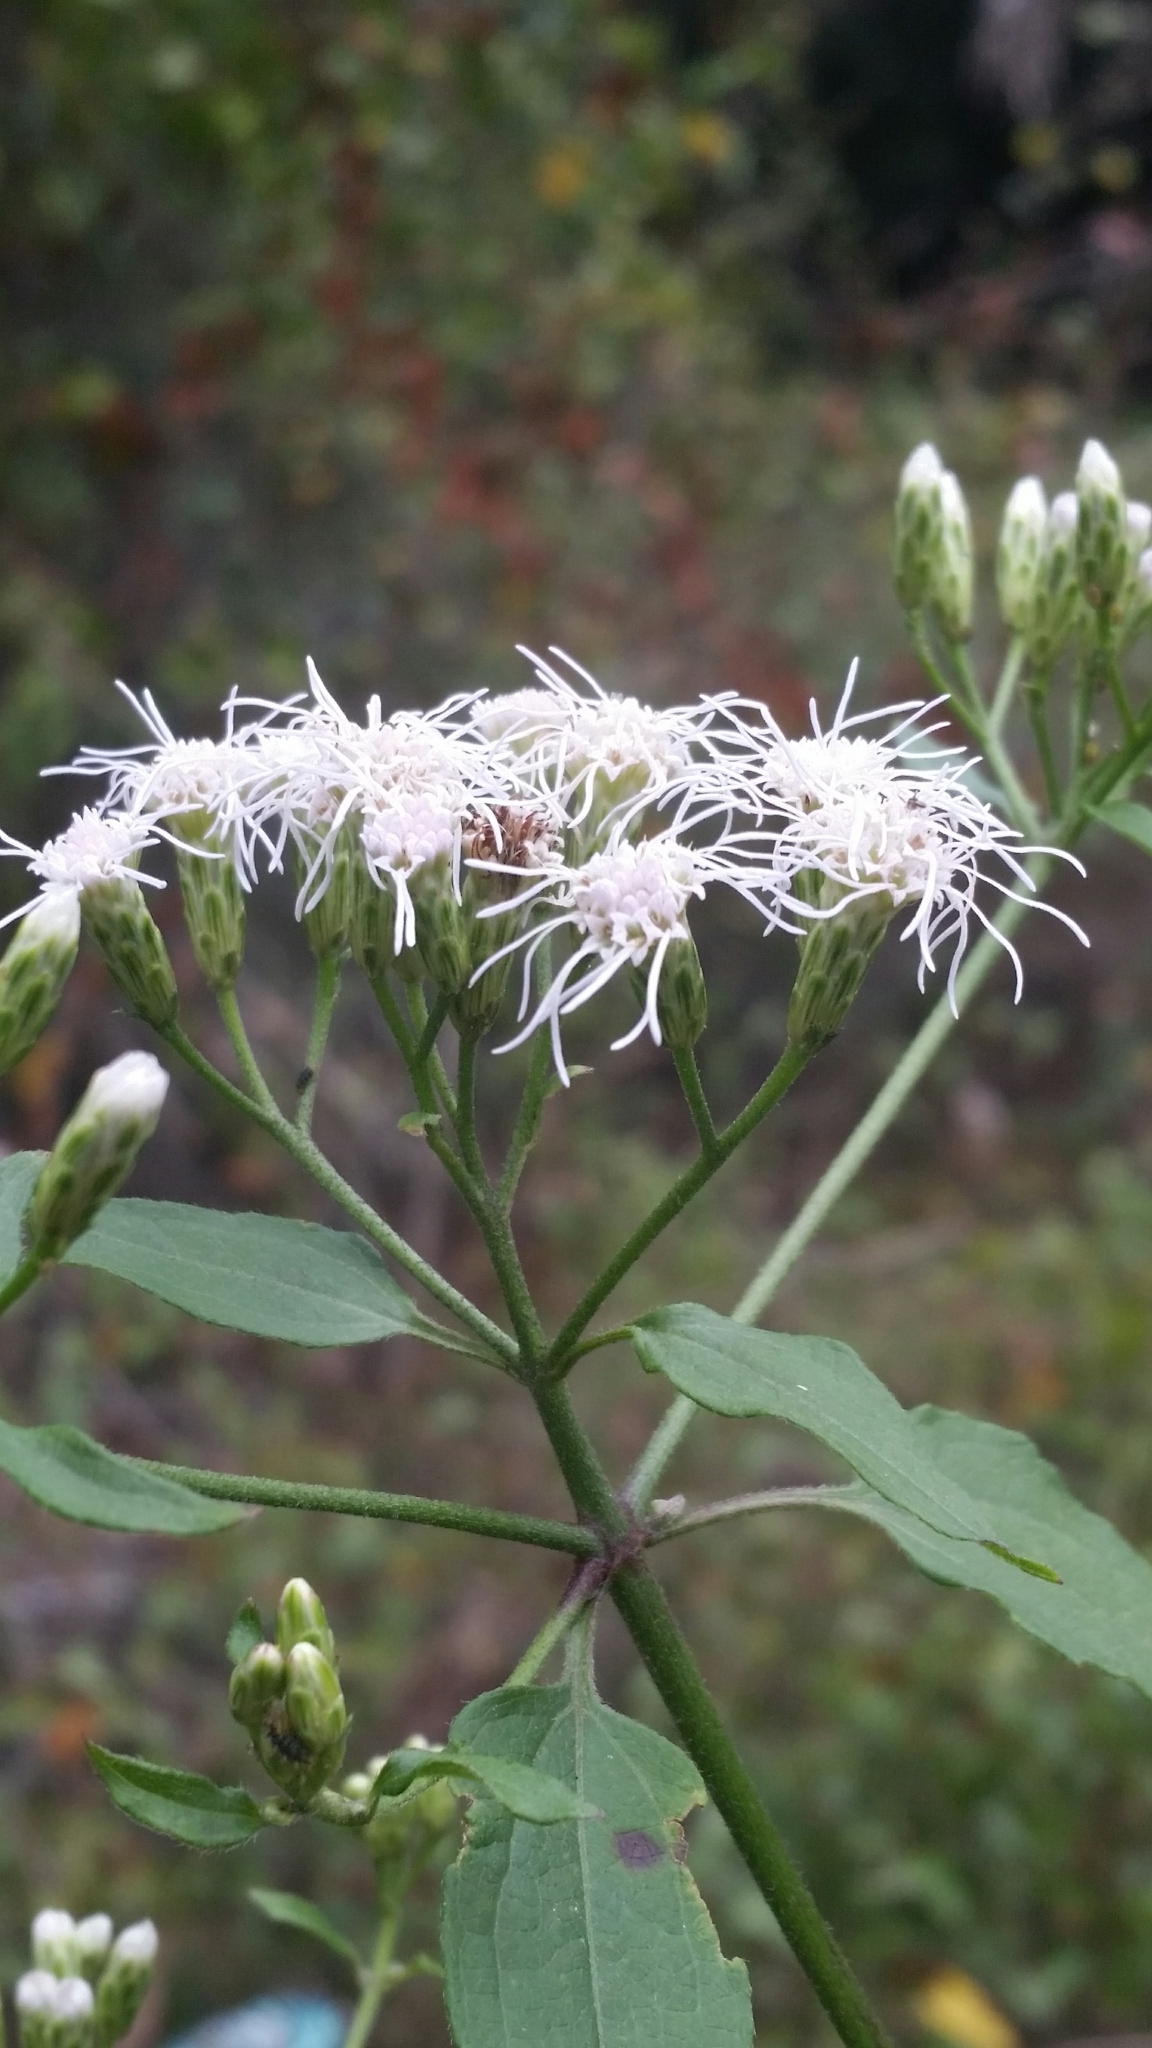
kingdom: Plantae
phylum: Tracheophyta
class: Magnoliopsida
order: Asterales
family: Asteraceae
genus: Chromolaena
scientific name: Chromolaena odorata
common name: Siamweed
